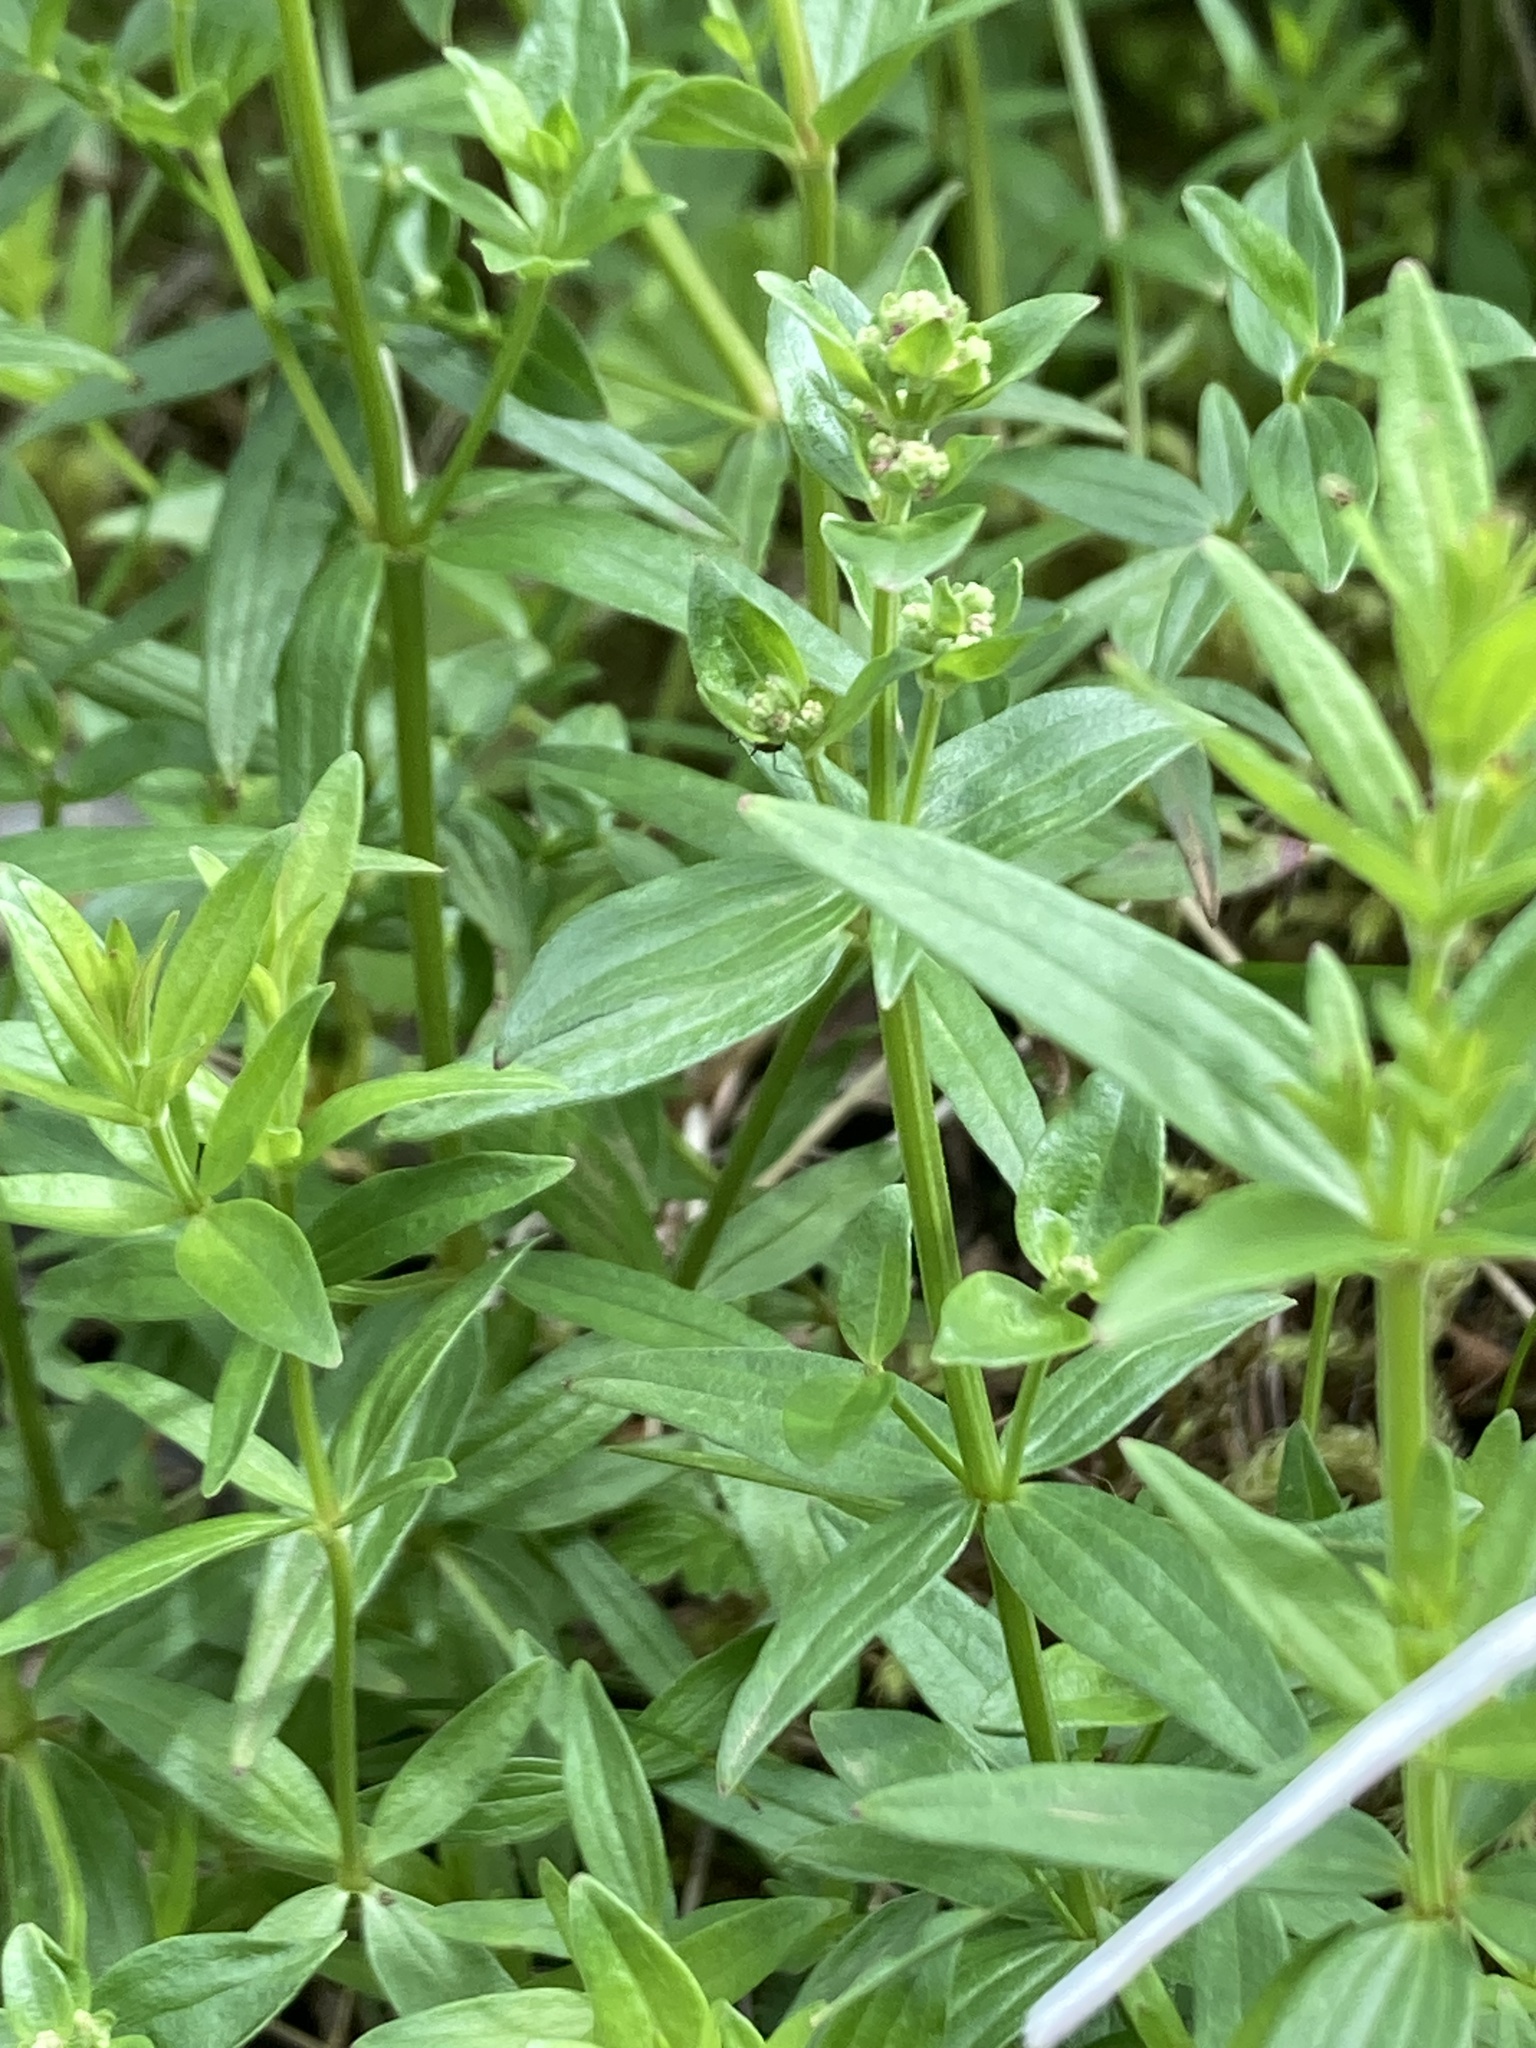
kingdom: Plantae
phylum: Tracheophyta
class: Magnoliopsida
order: Gentianales
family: Rubiaceae
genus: Galium
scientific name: Galium boreale
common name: Northern bedstraw
